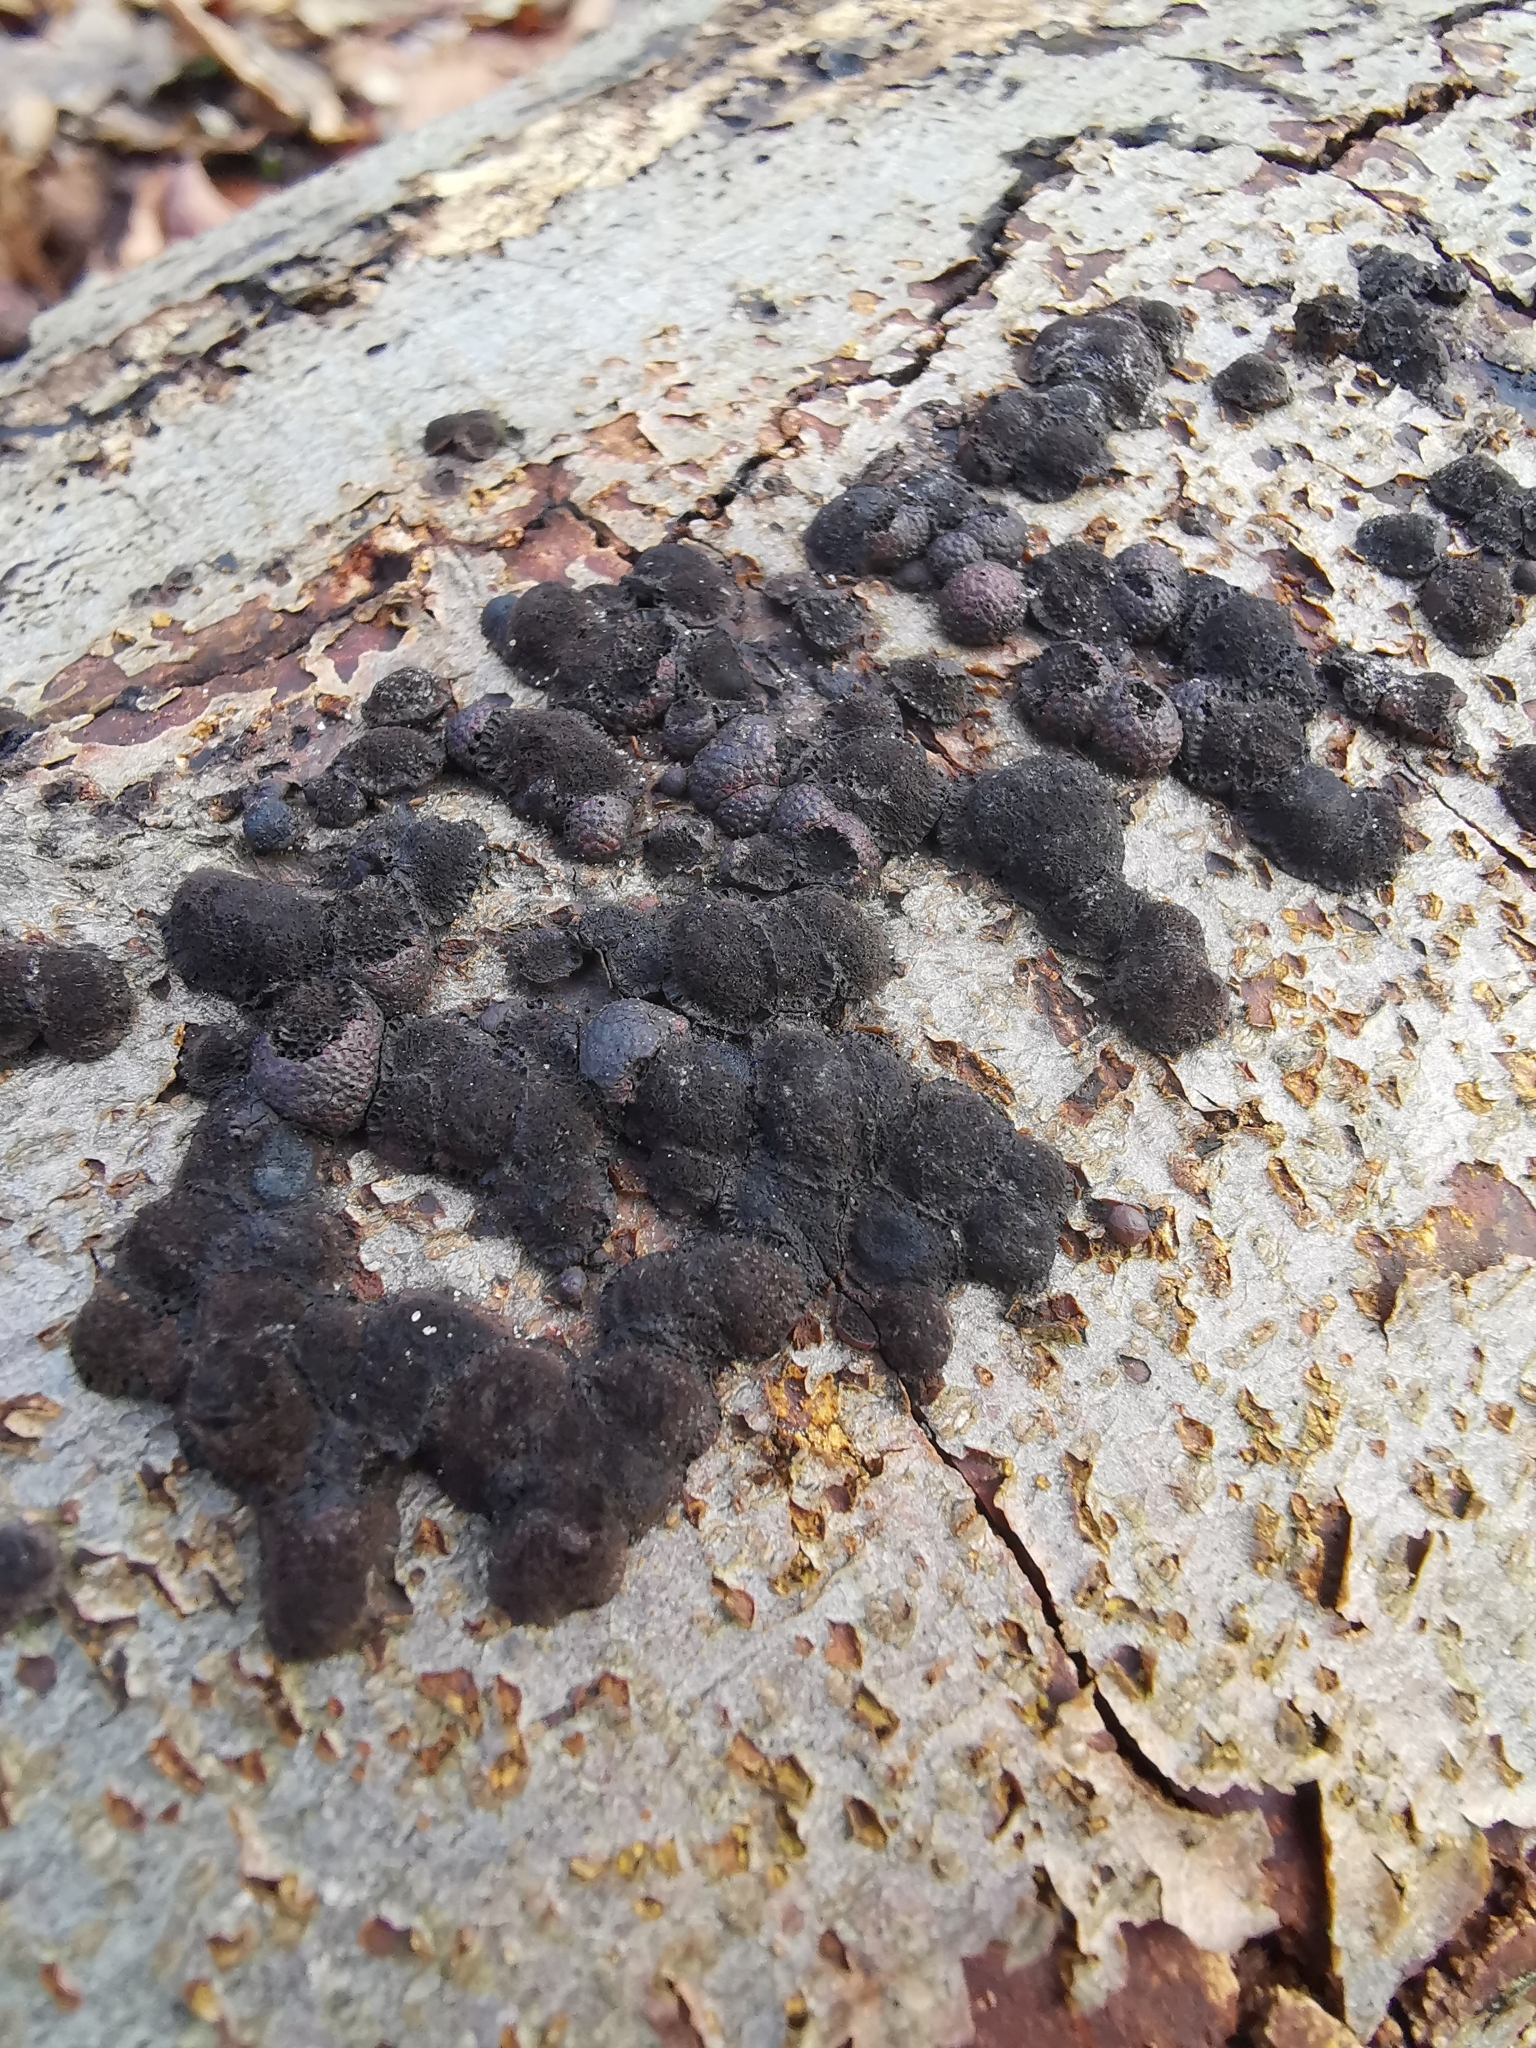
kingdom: Fungi
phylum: Ascomycota
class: Sordariomycetes
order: Xylariales
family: Hypoxylaceae
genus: Hypoxylon
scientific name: Hypoxylon fragiforme
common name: Beech woodwart
